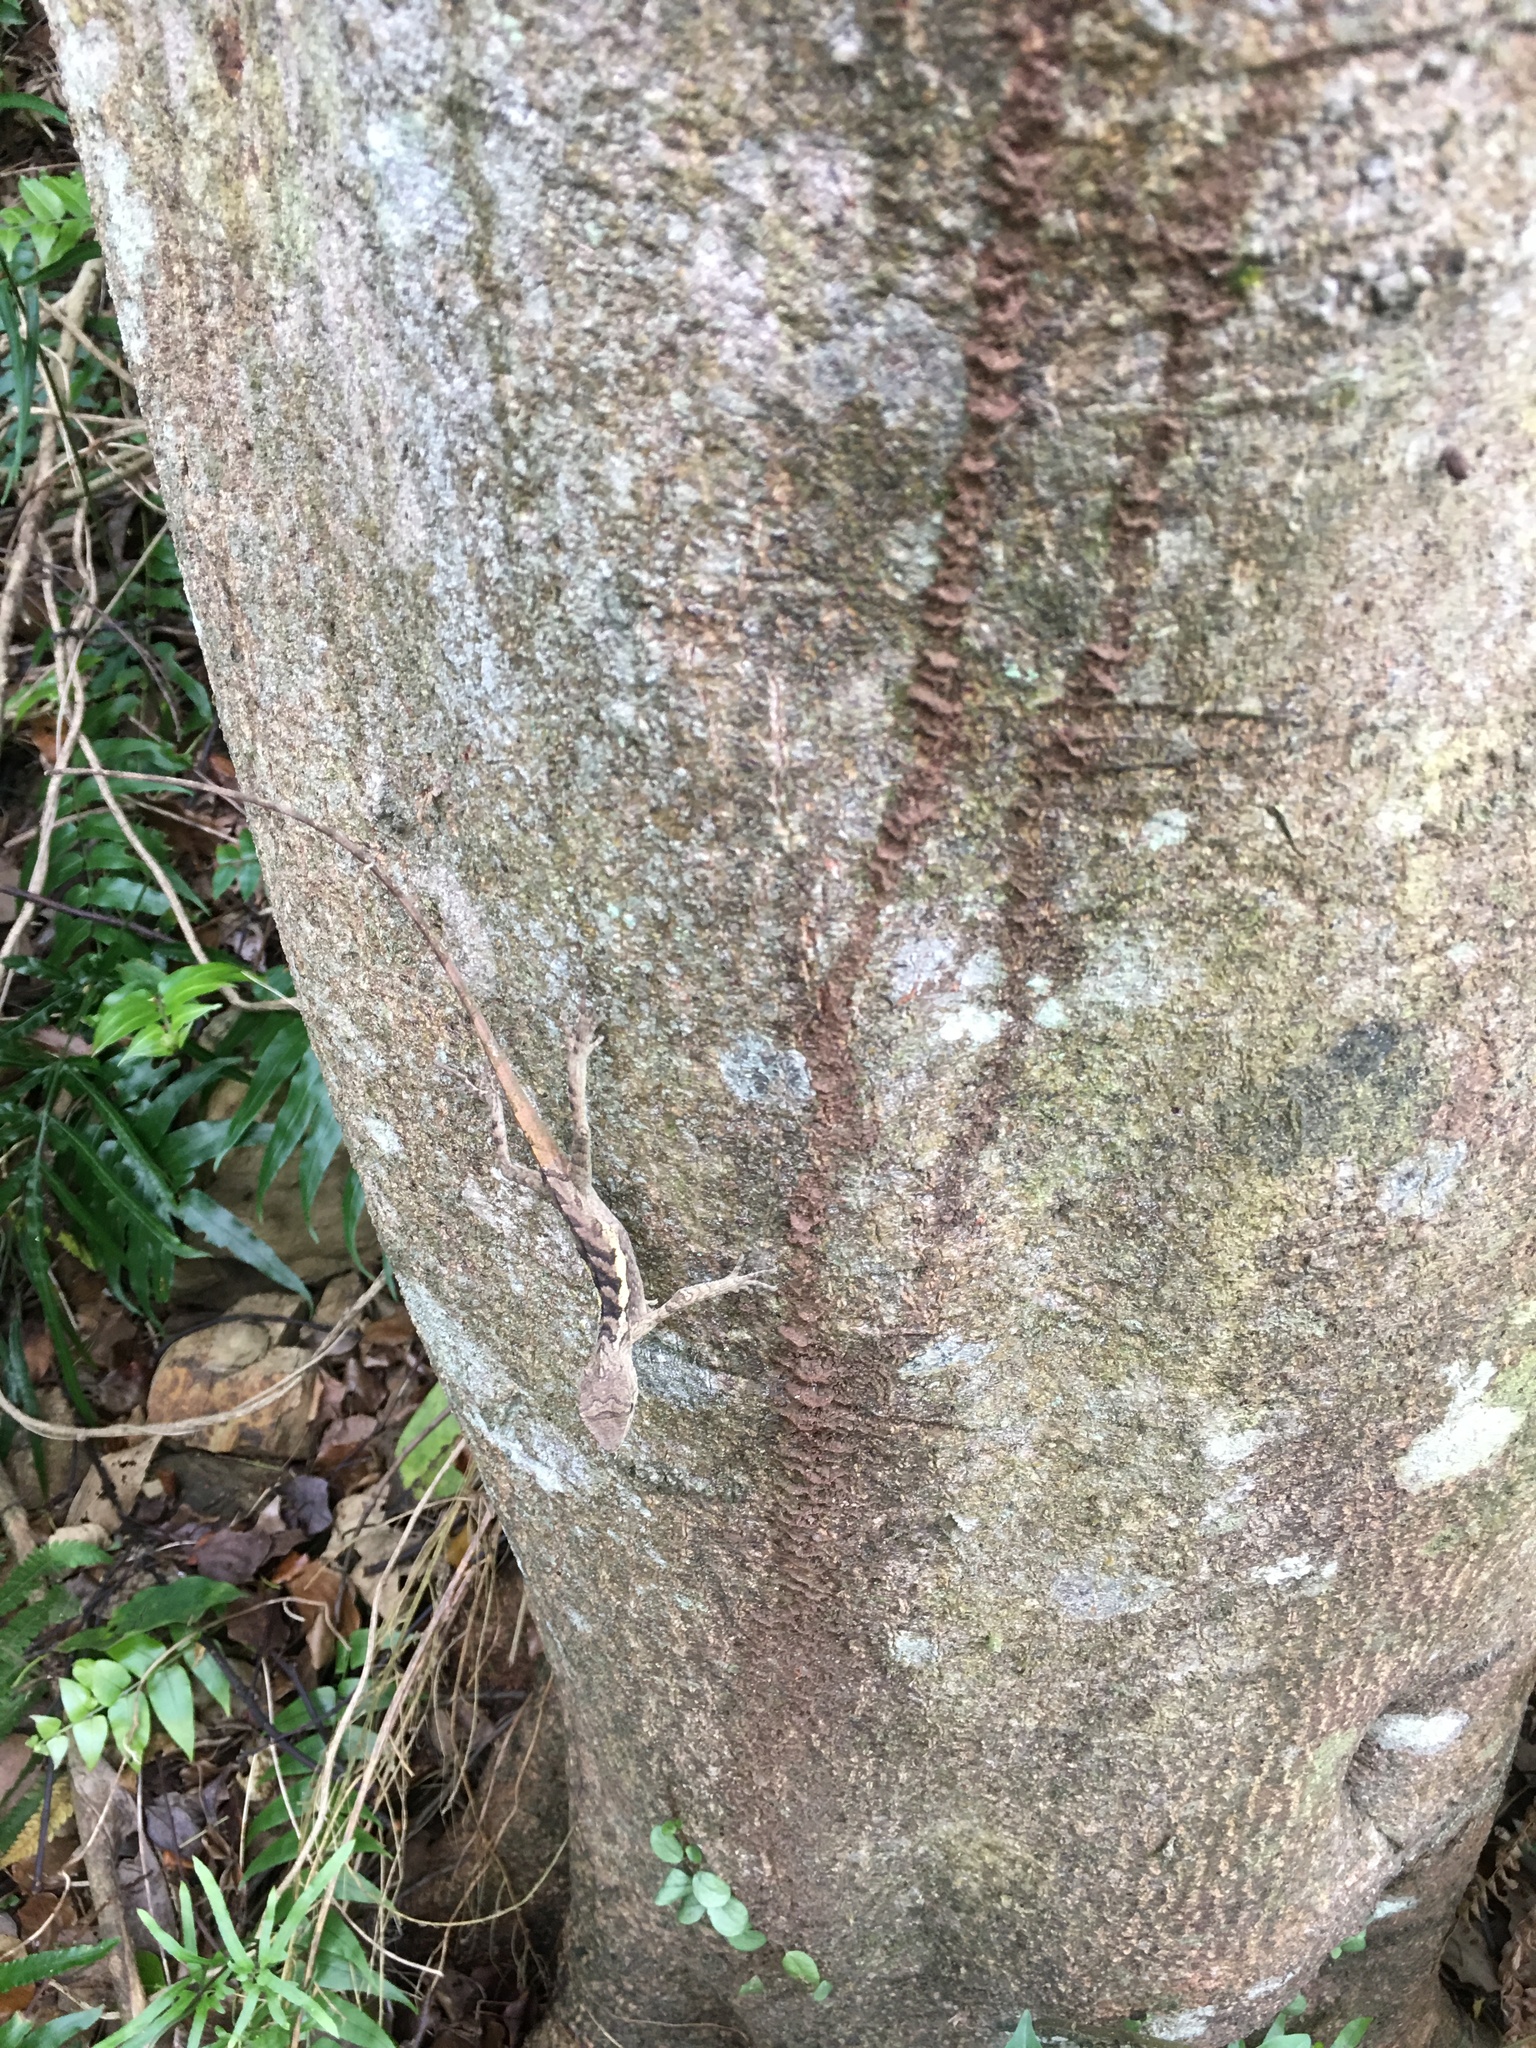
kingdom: Animalia
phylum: Chordata
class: Squamata
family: Agamidae
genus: Diploderma
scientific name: Diploderma swinhonis
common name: Taiwan japalure
